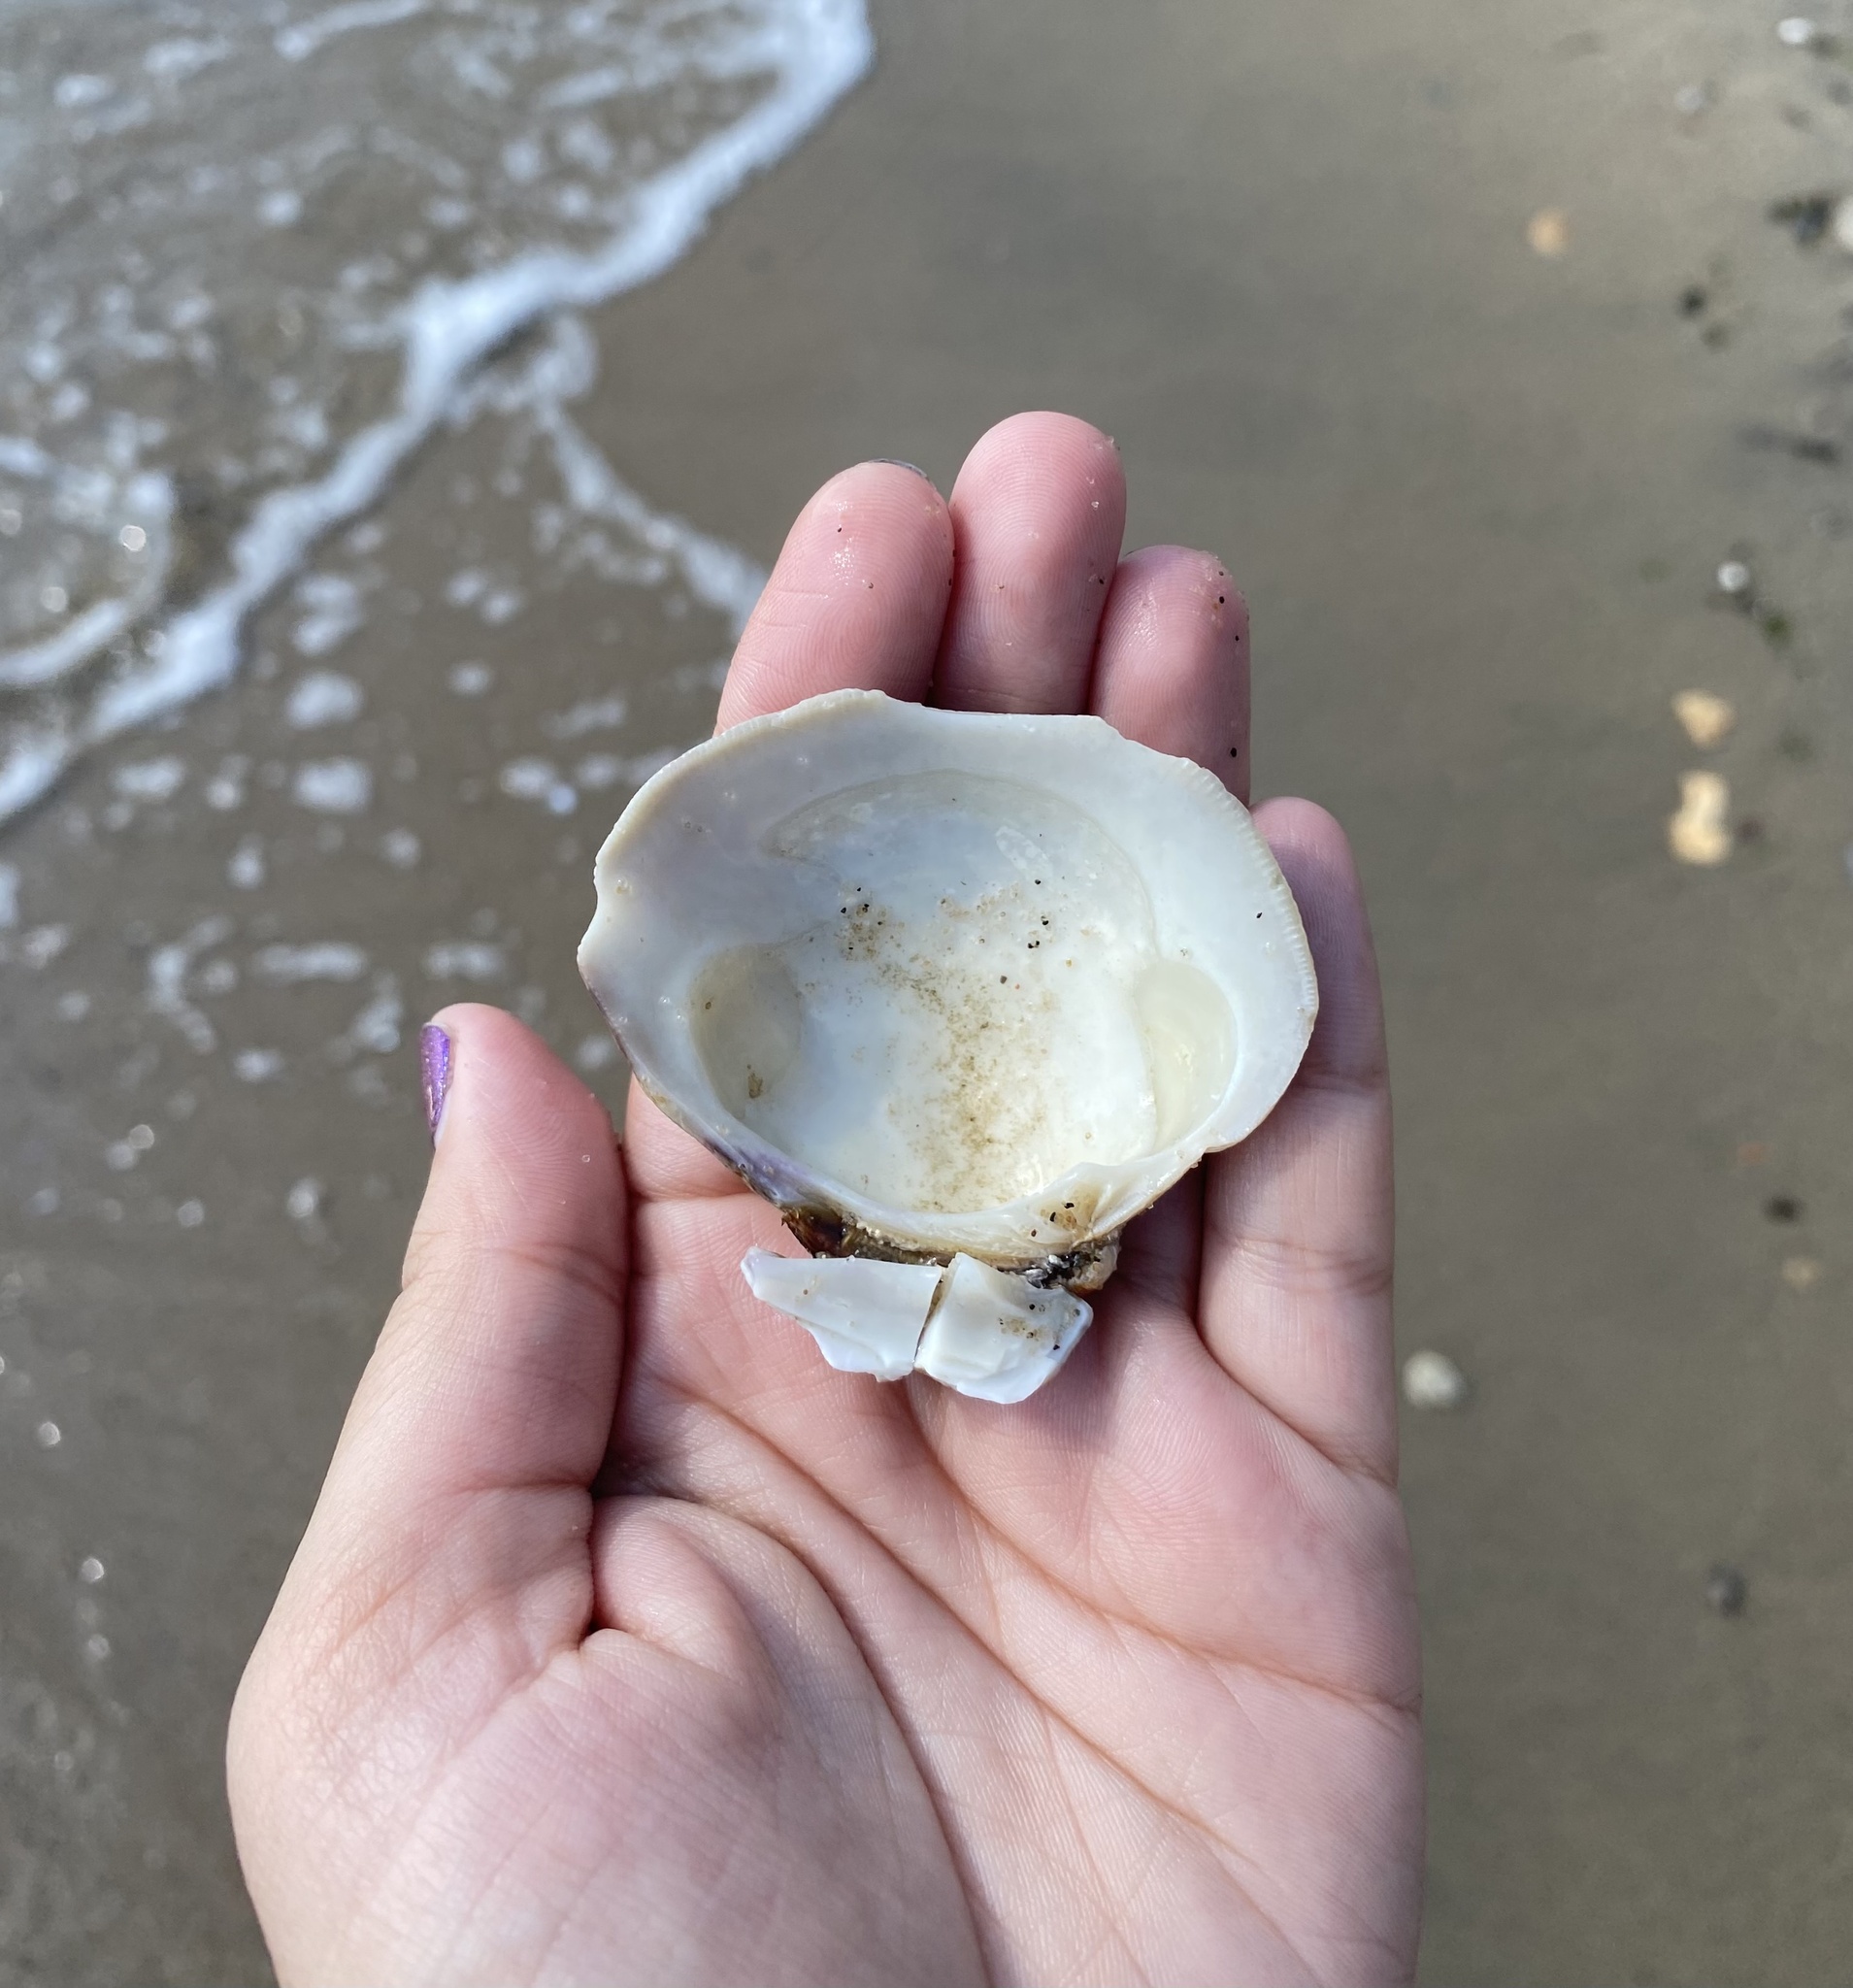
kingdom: Animalia
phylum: Mollusca
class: Bivalvia
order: Venerida
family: Veneridae
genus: Mercenaria
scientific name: Mercenaria mercenaria
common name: American hard-shelled clam
